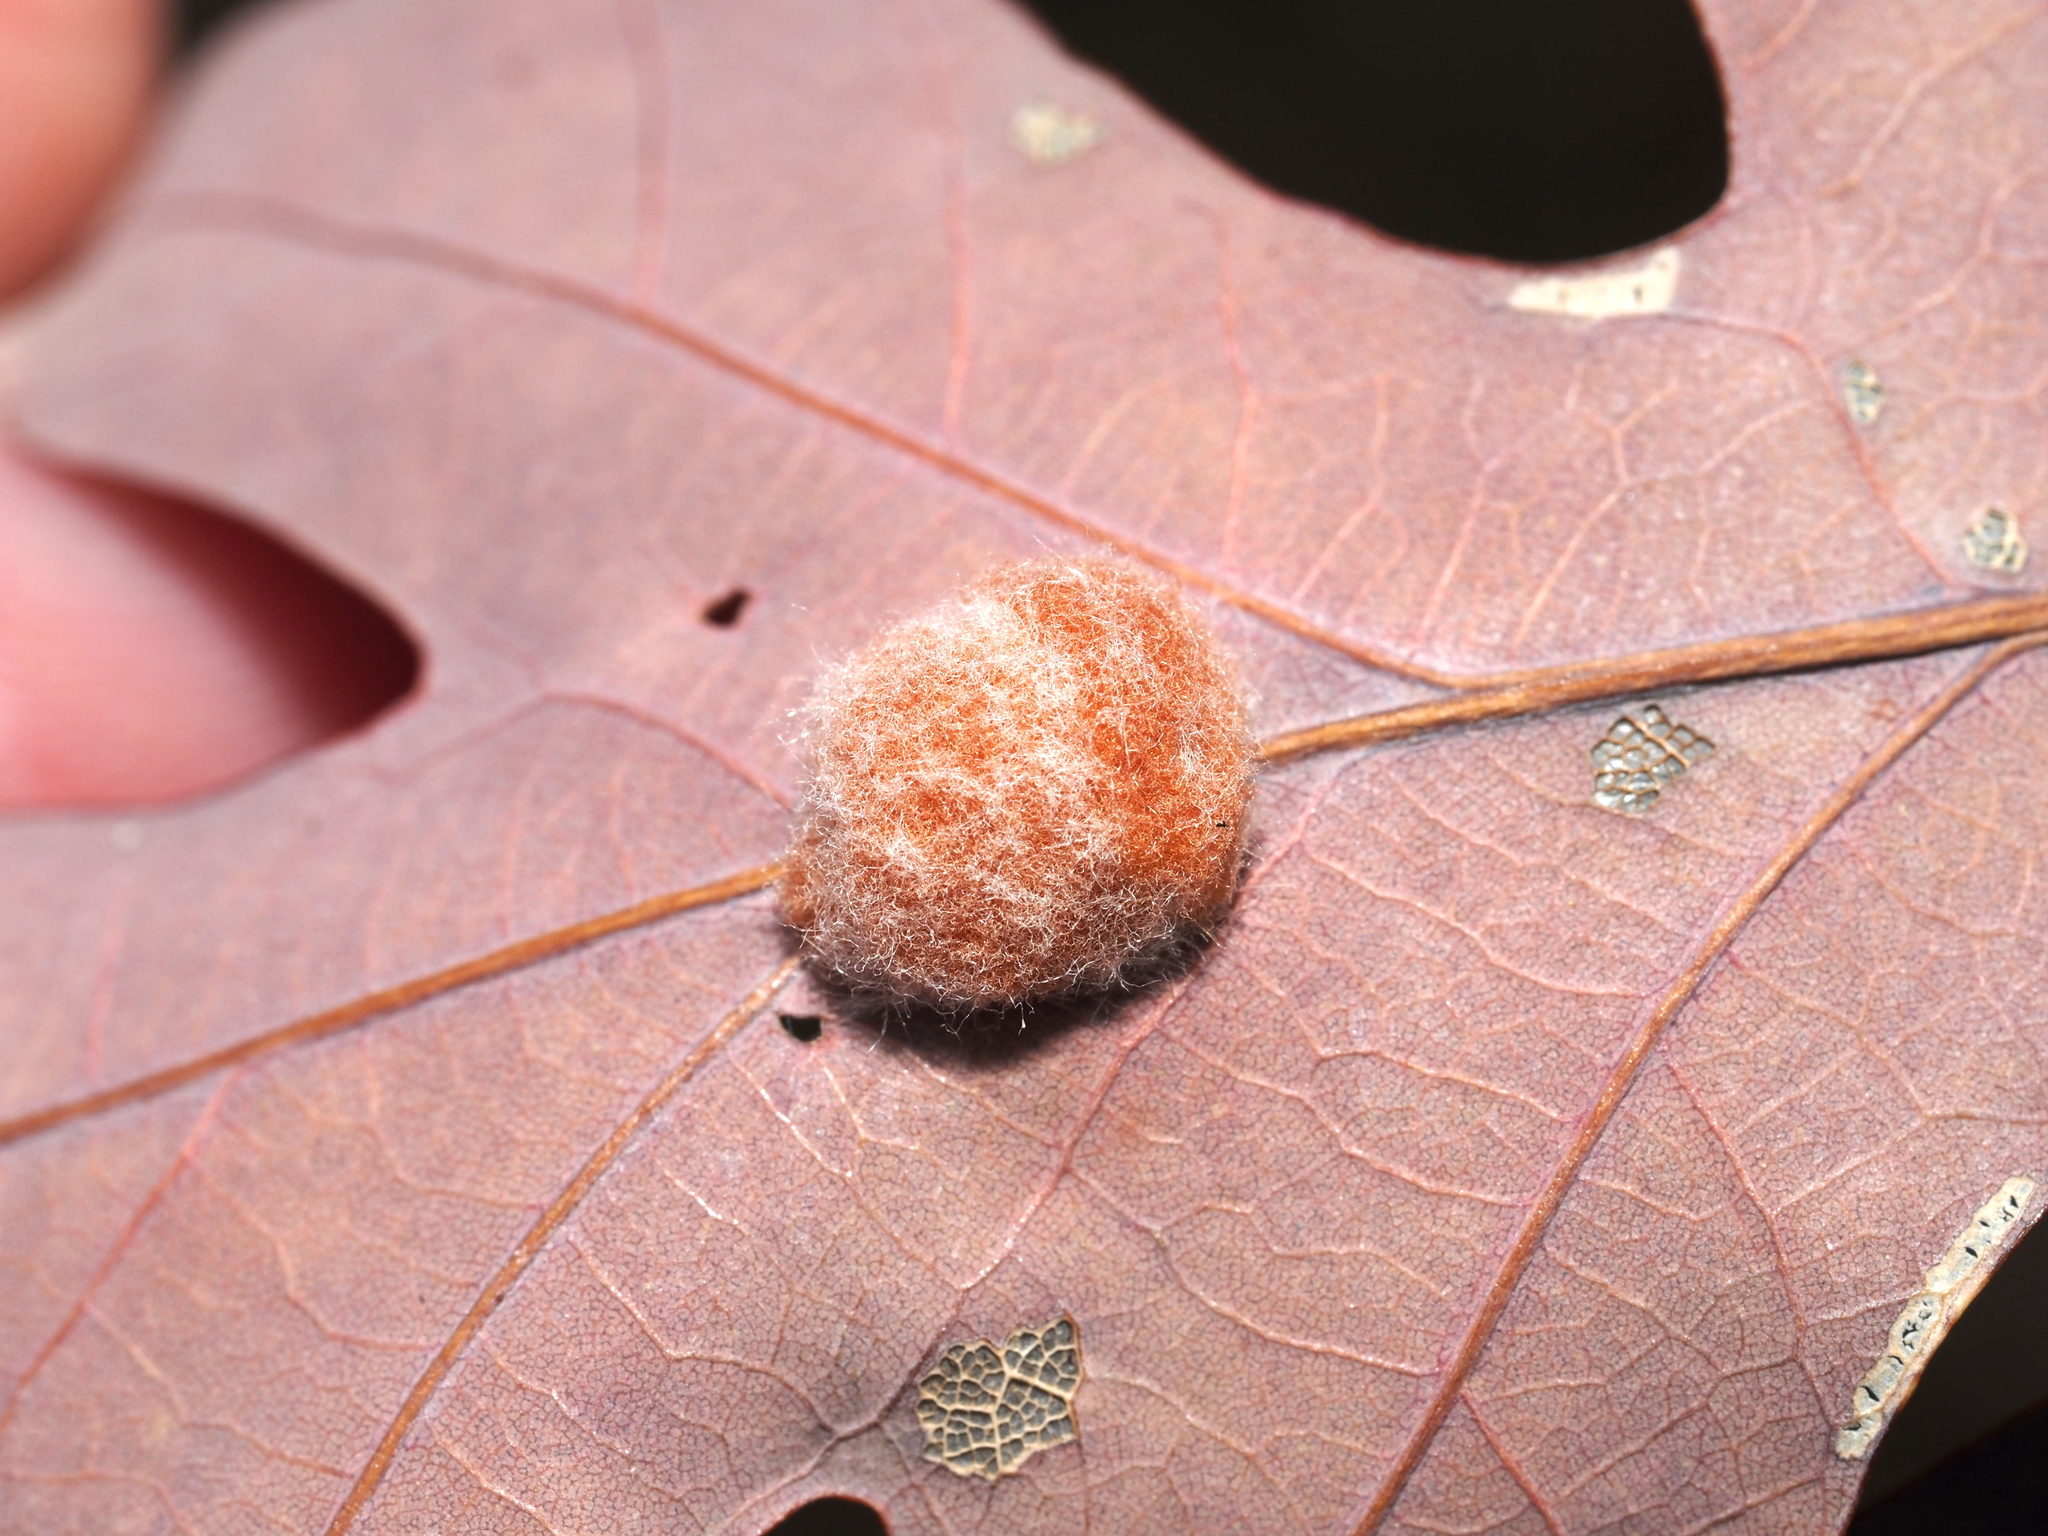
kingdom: Animalia
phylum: Arthropoda
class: Insecta
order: Hymenoptera
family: Cynipidae
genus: Andricus
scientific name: Andricus quercusflocci
